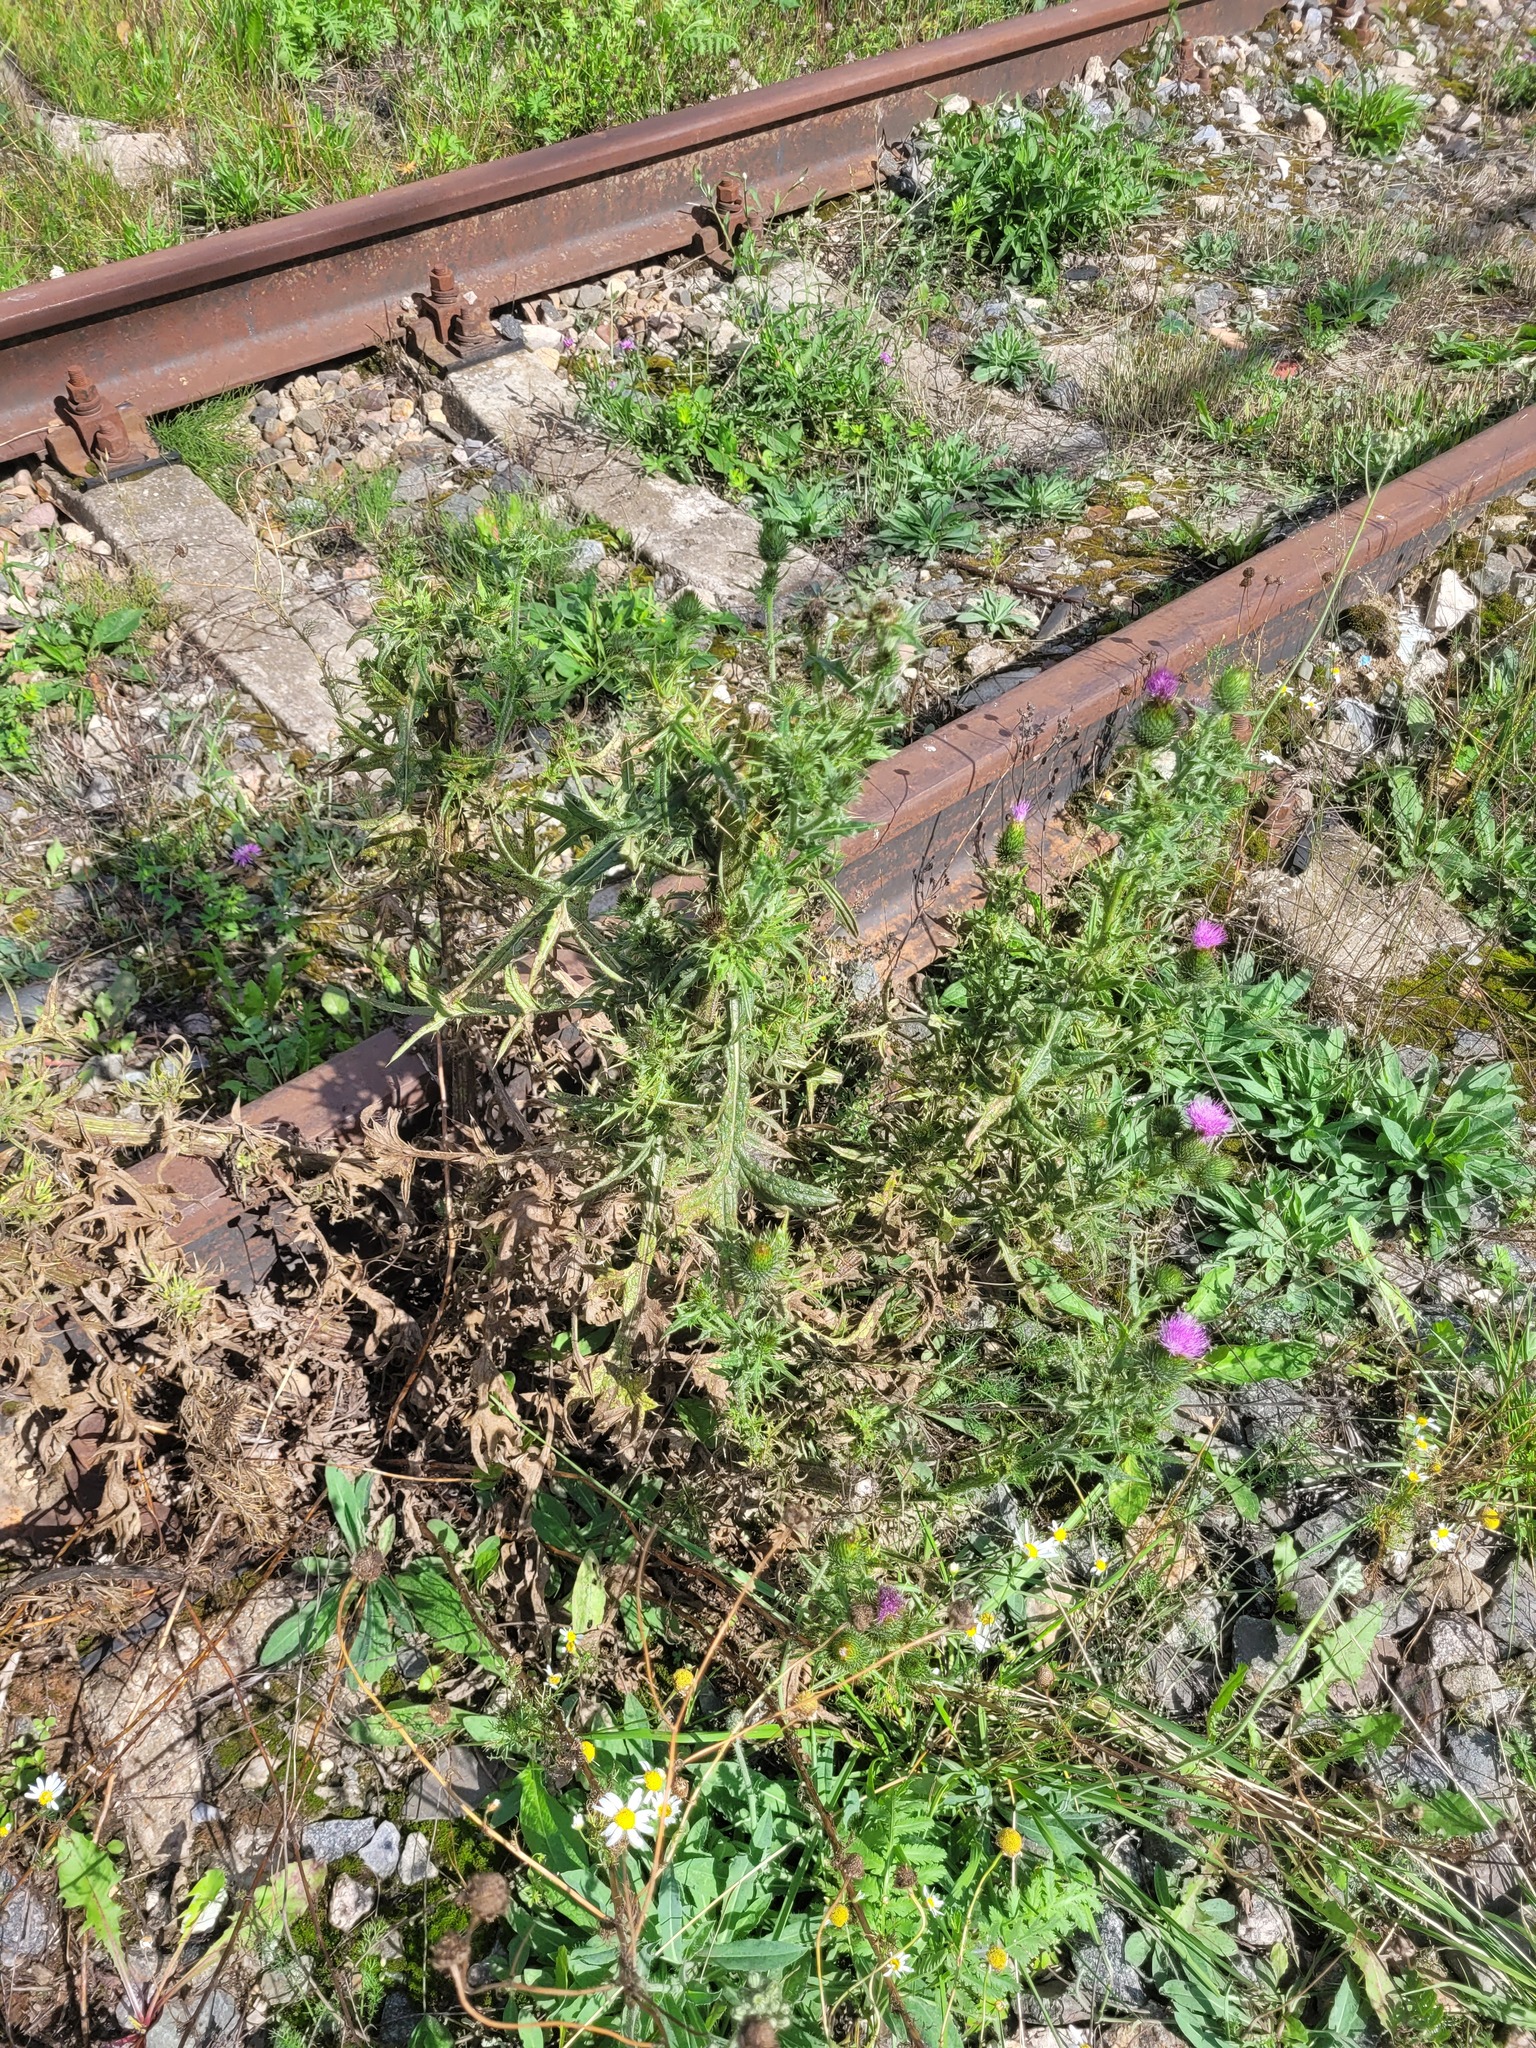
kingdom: Plantae
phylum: Tracheophyta
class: Magnoliopsida
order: Asterales
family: Asteraceae
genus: Cirsium
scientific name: Cirsium vulgare
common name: Bull thistle
